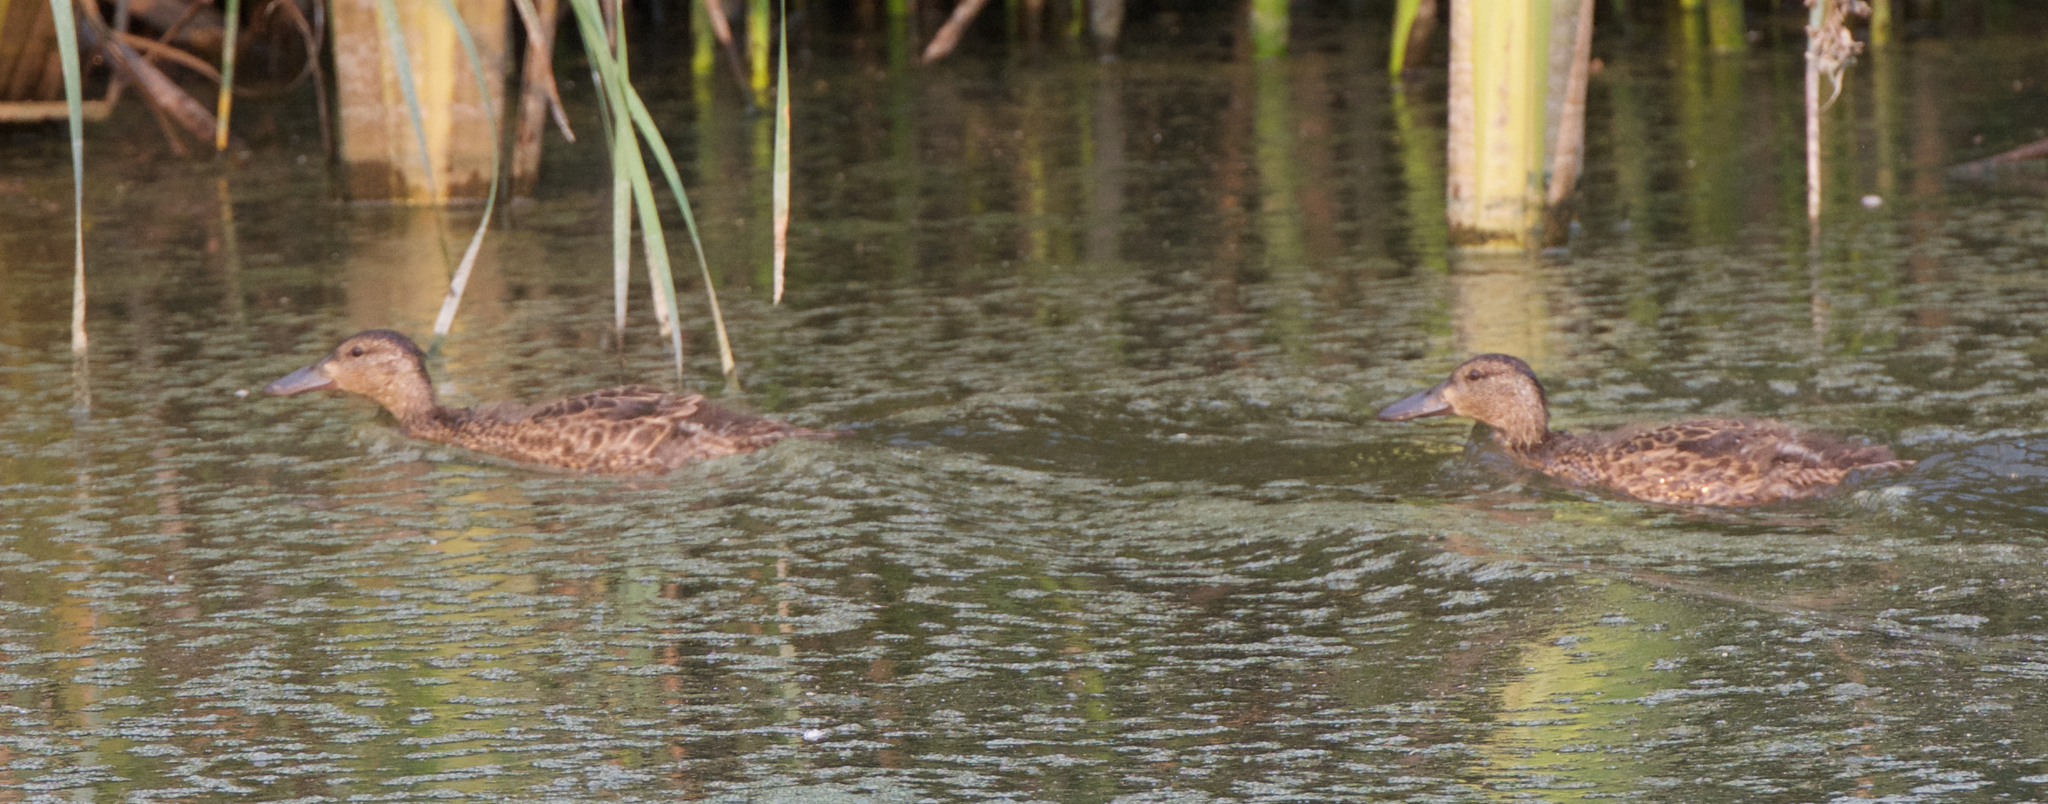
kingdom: Animalia
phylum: Chordata
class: Aves
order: Anseriformes
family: Anatidae
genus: Spatula
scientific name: Spatula cyanoptera
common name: Cinnamon teal
